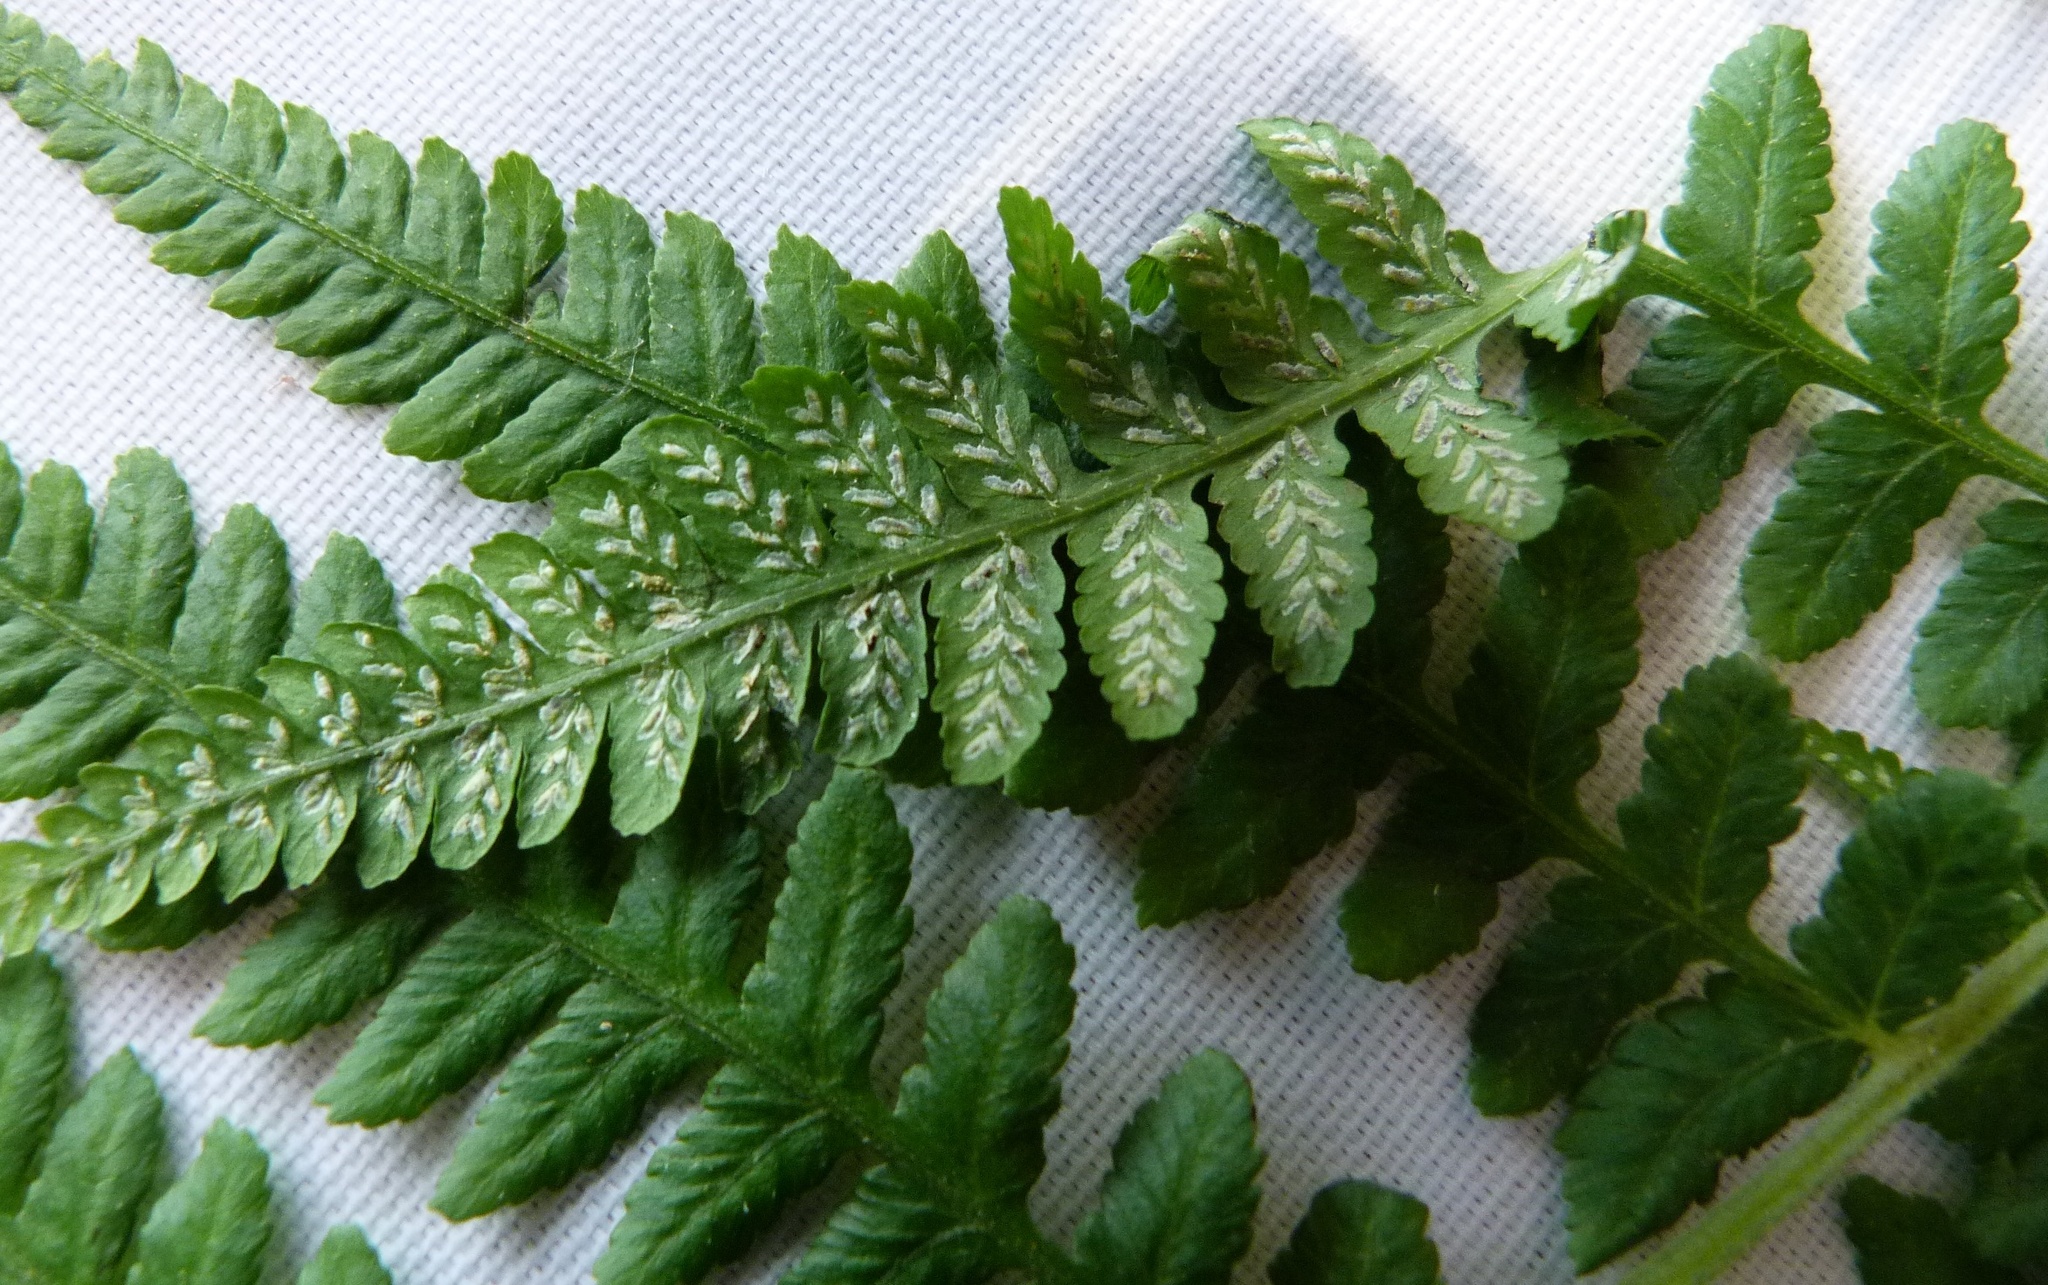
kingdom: Plantae
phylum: Tracheophyta
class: Polypodiopsida
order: Polypodiales
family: Athyriaceae
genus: Diplazium
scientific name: Diplazium congruum
